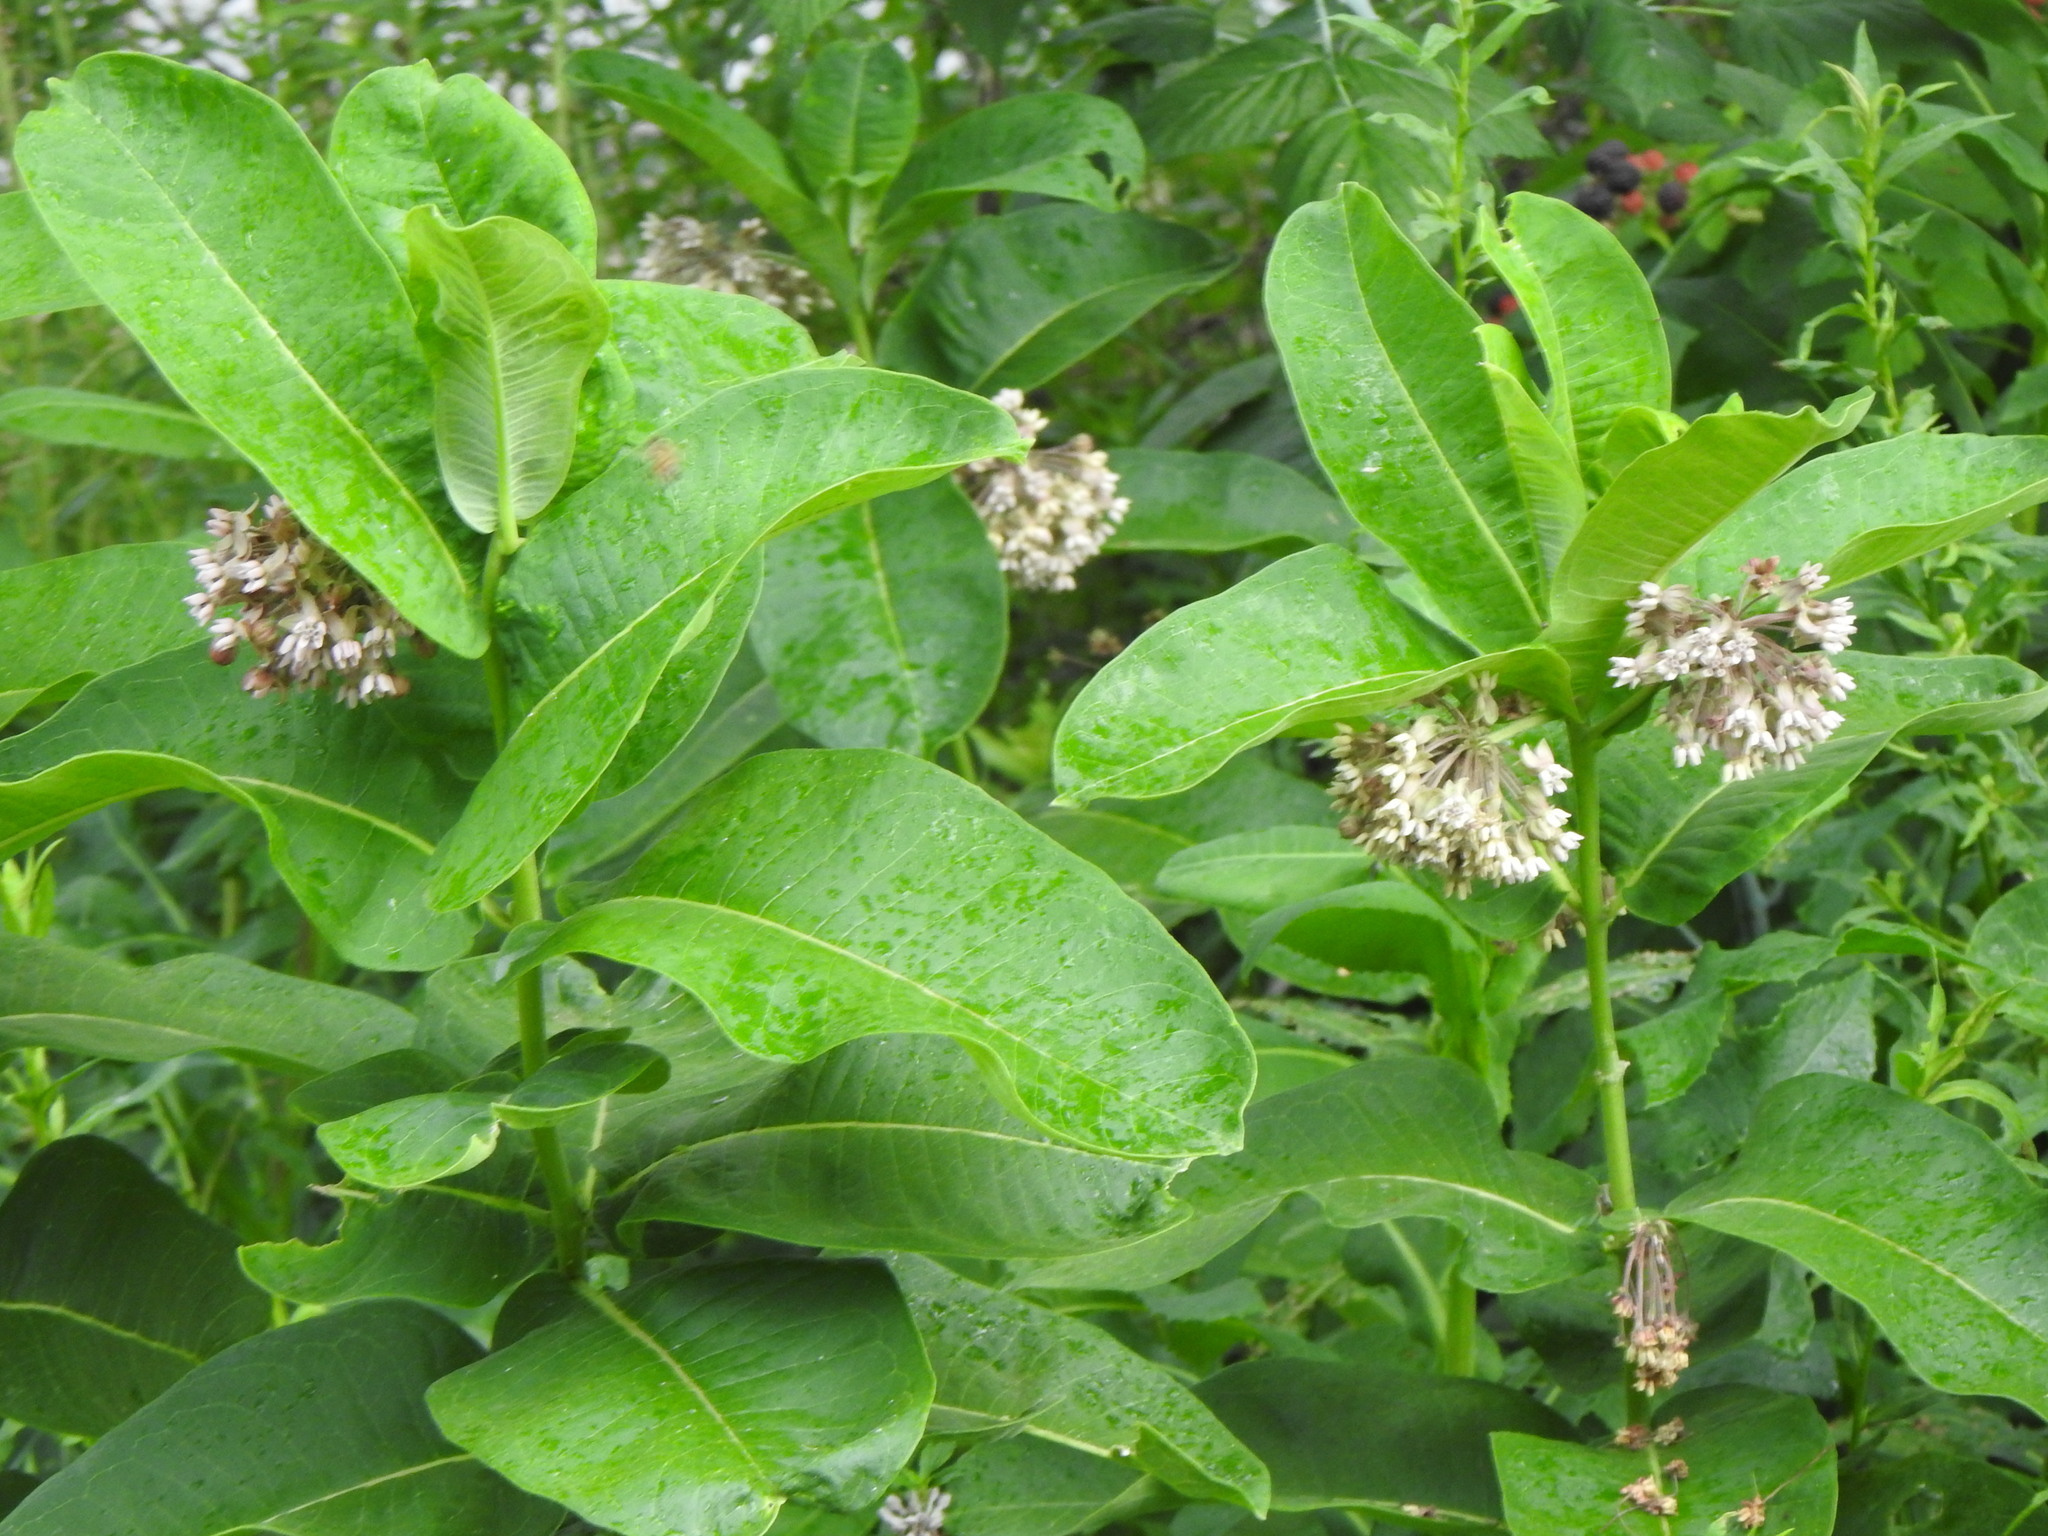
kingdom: Plantae
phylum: Tracheophyta
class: Magnoliopsida
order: Gentianales
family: Apocynaceae
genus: Asclepias
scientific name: Asclepias syriaca
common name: Common milkweed
